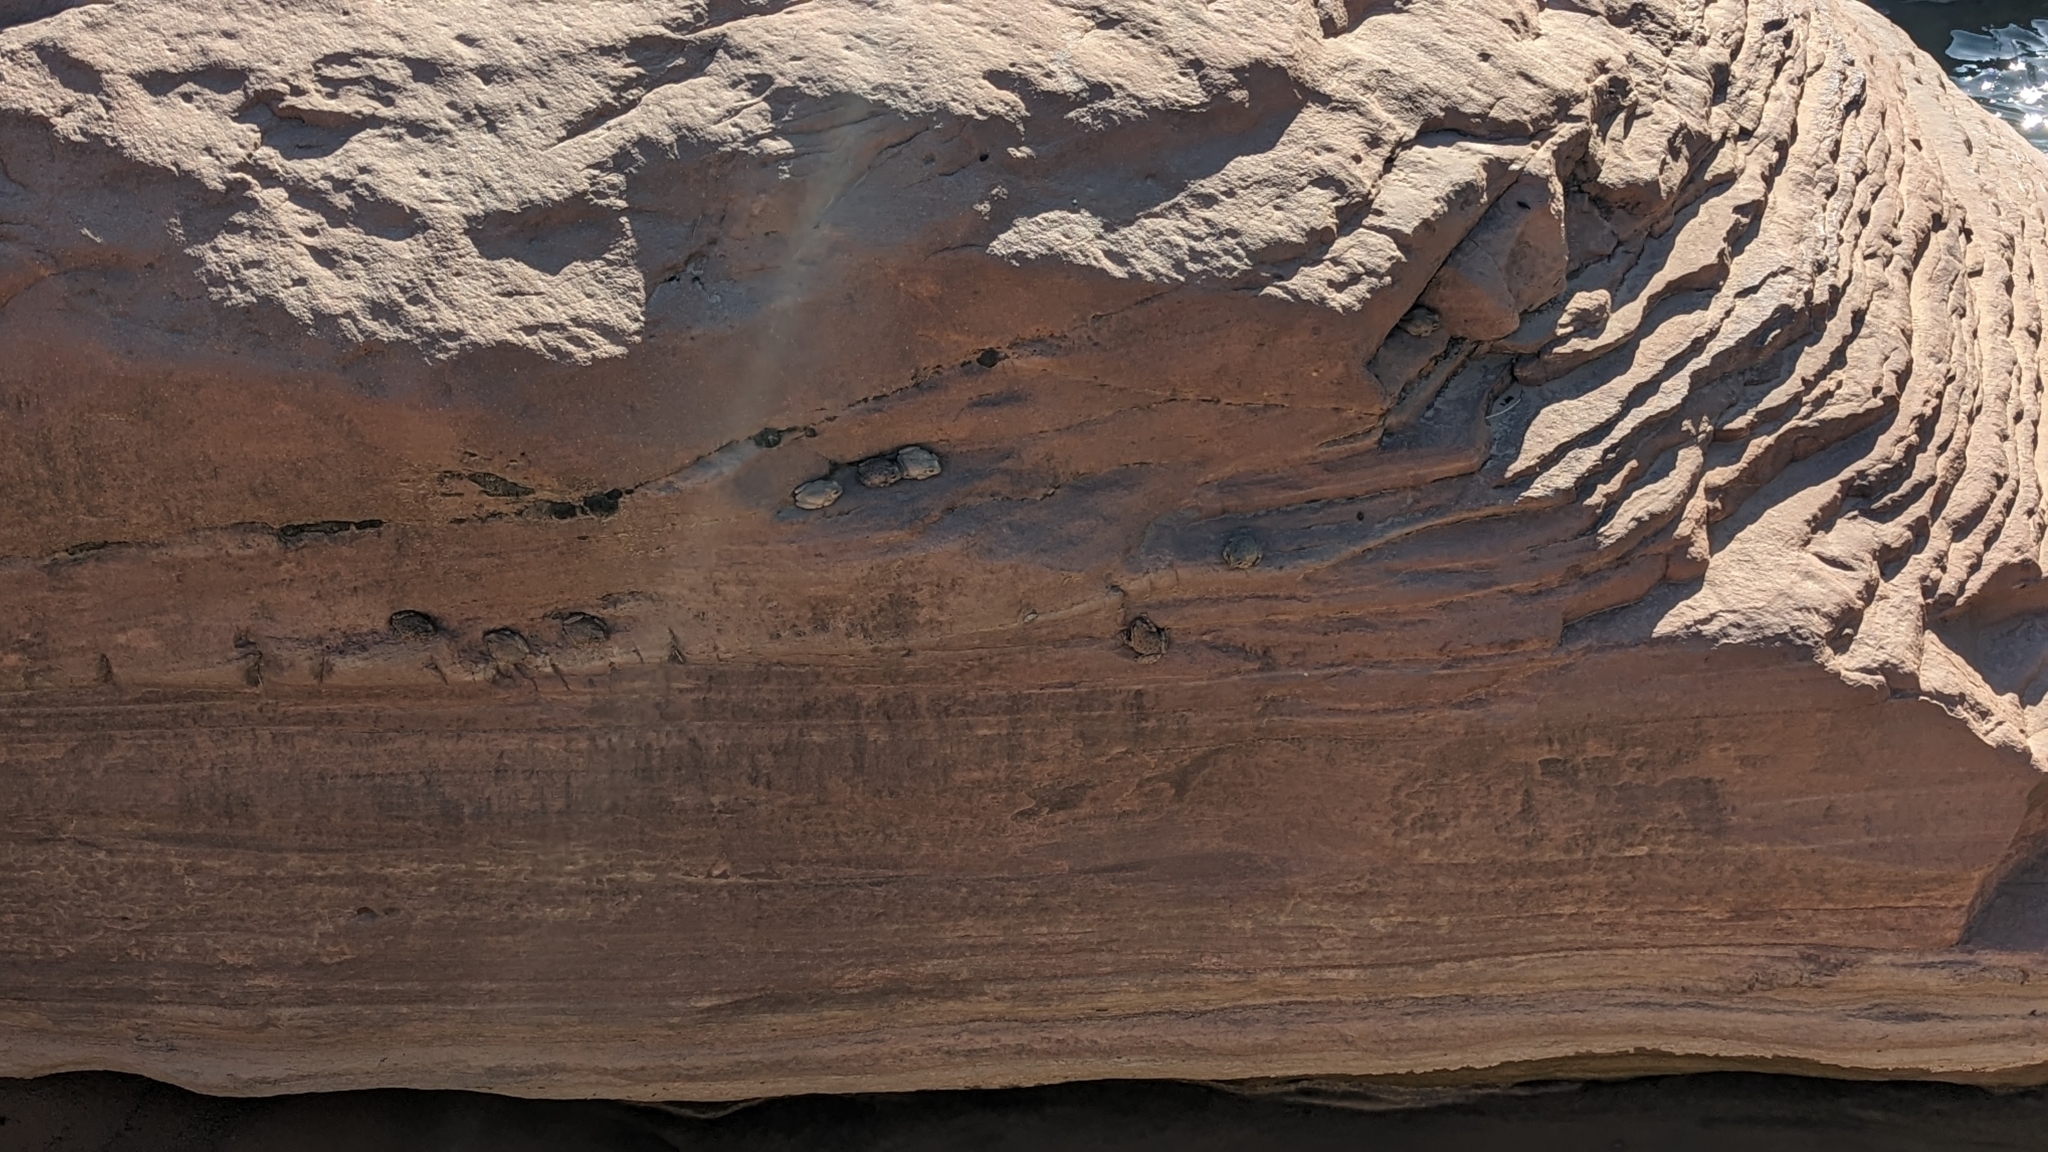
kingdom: Animalia
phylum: Chordata
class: Amphibia
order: Anura
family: Hylidae
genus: Dryophytes
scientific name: Dryophytes arenicolor
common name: Canyon treefrog
